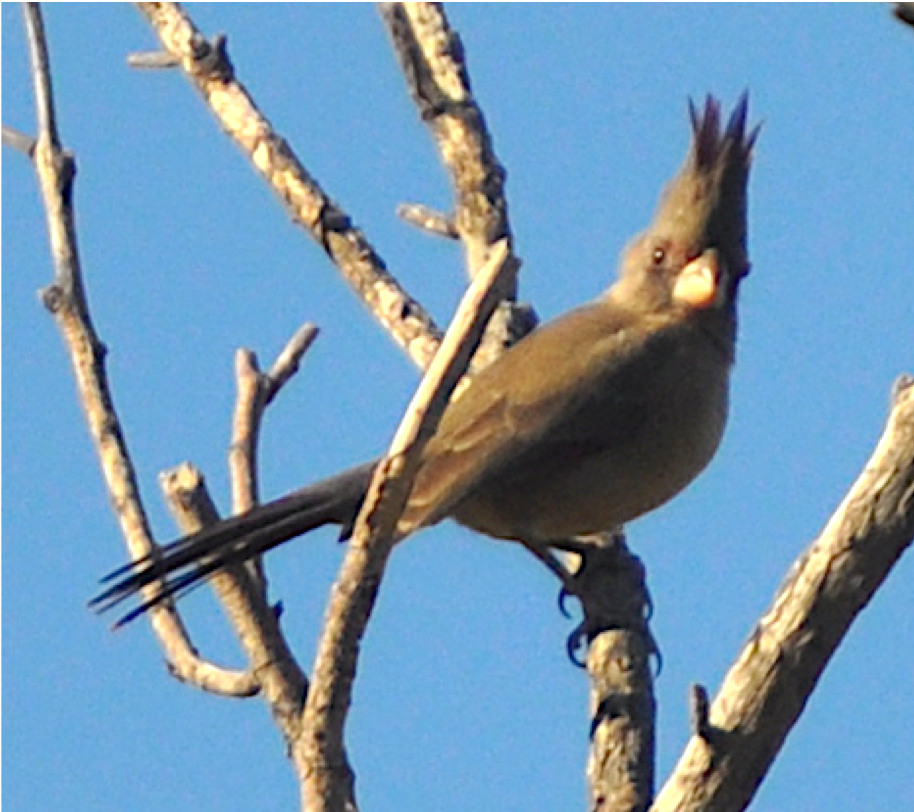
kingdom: Animalia
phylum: Chordata
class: Aves
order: Passeriformes
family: Cardinalidae
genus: Cardinalis
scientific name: Cardinalis sinuatus
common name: Pyrrhuloxia
